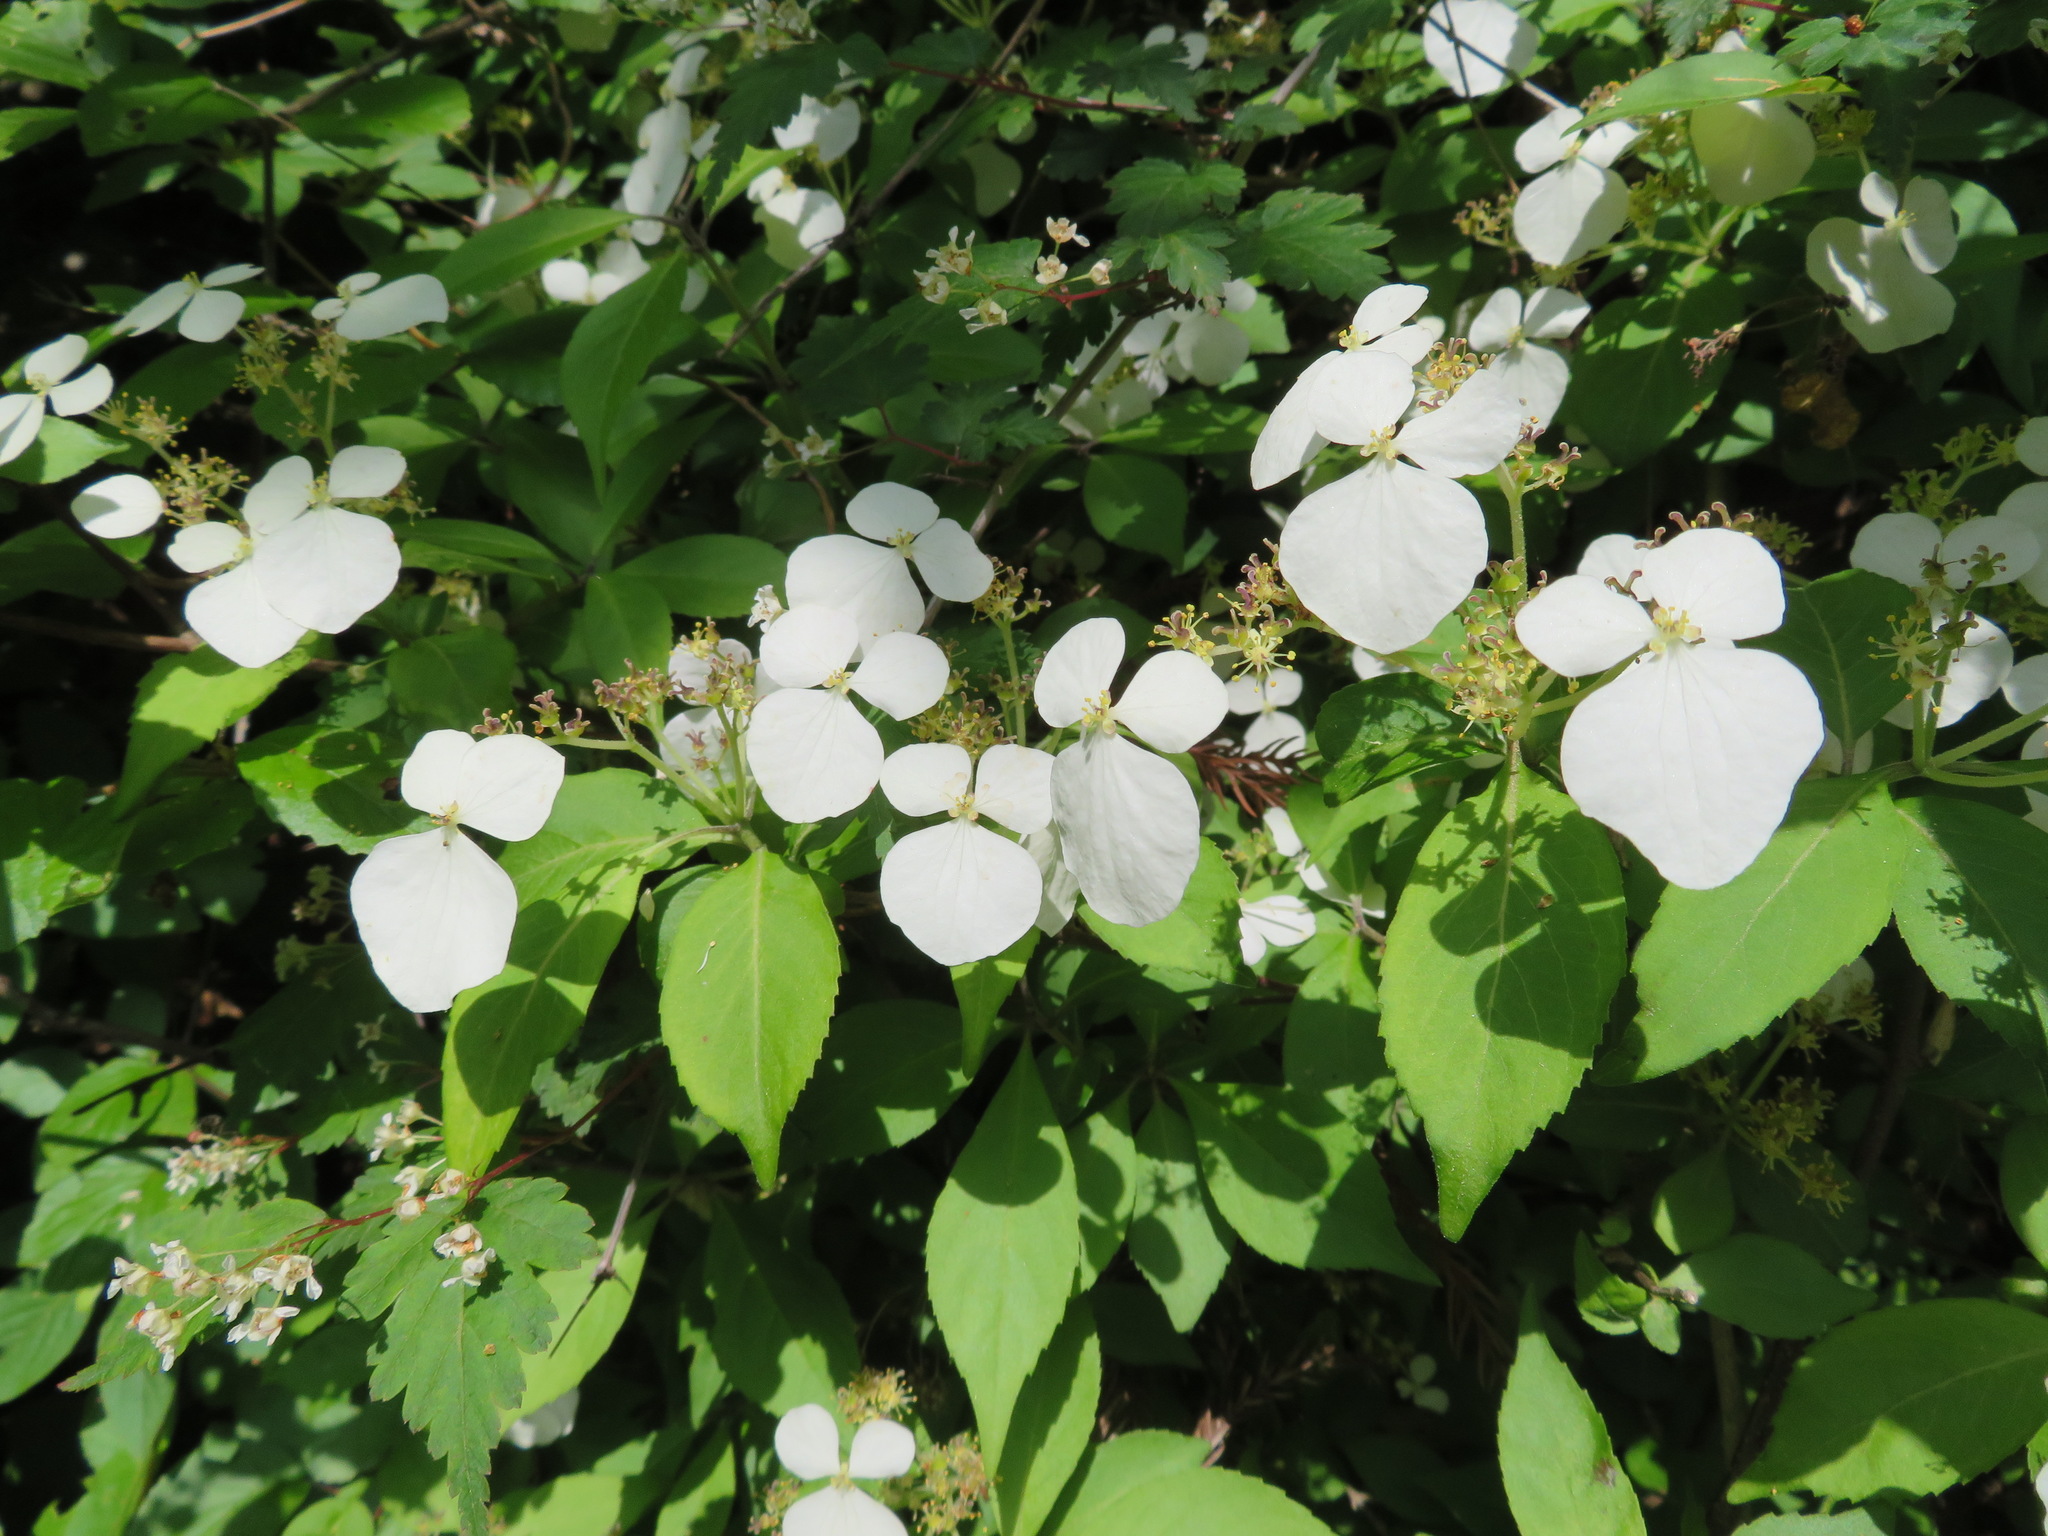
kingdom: Plantae
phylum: Tracheophyta
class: Magnoliopsida
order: Cornales
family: Hydrangeaceae
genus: Hydrangea
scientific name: Hydrangea scandens
